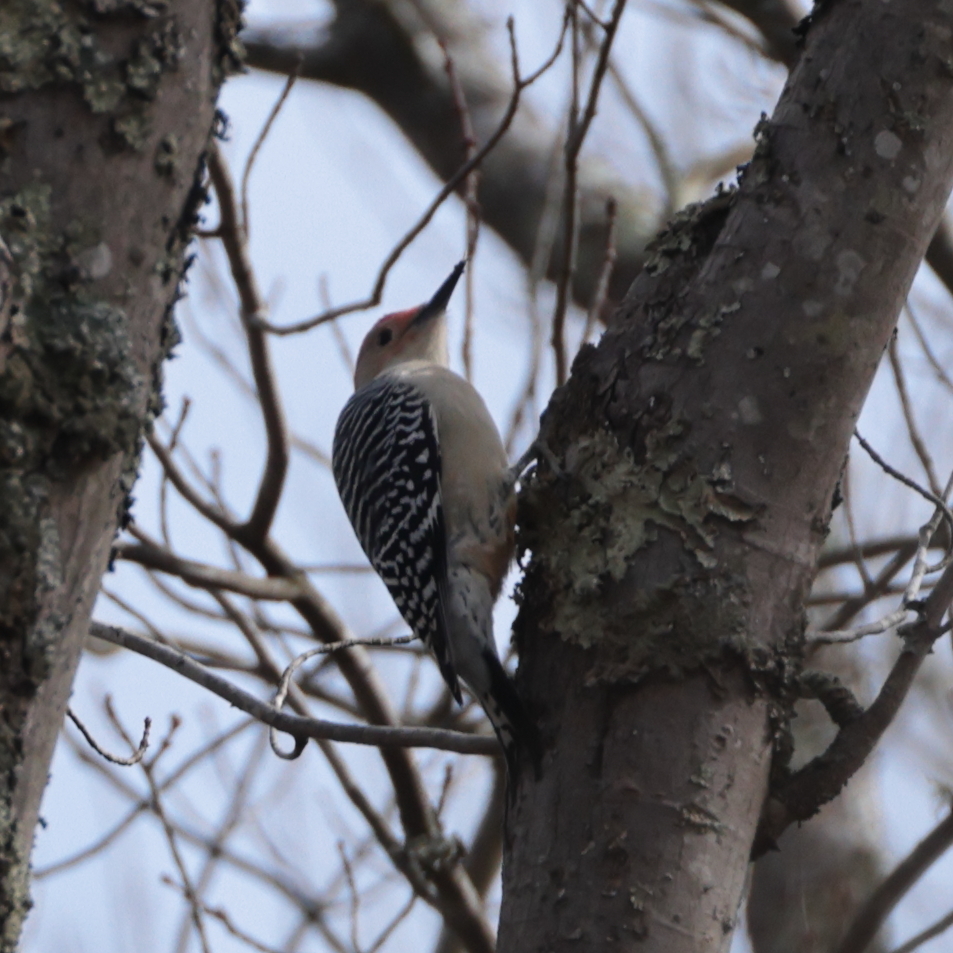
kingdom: Animalia
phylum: Chordata
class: Aves
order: Piciformes
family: Picidae
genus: Melanerpes
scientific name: Melanerpes carolinus
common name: Red-bellied woodpecker
